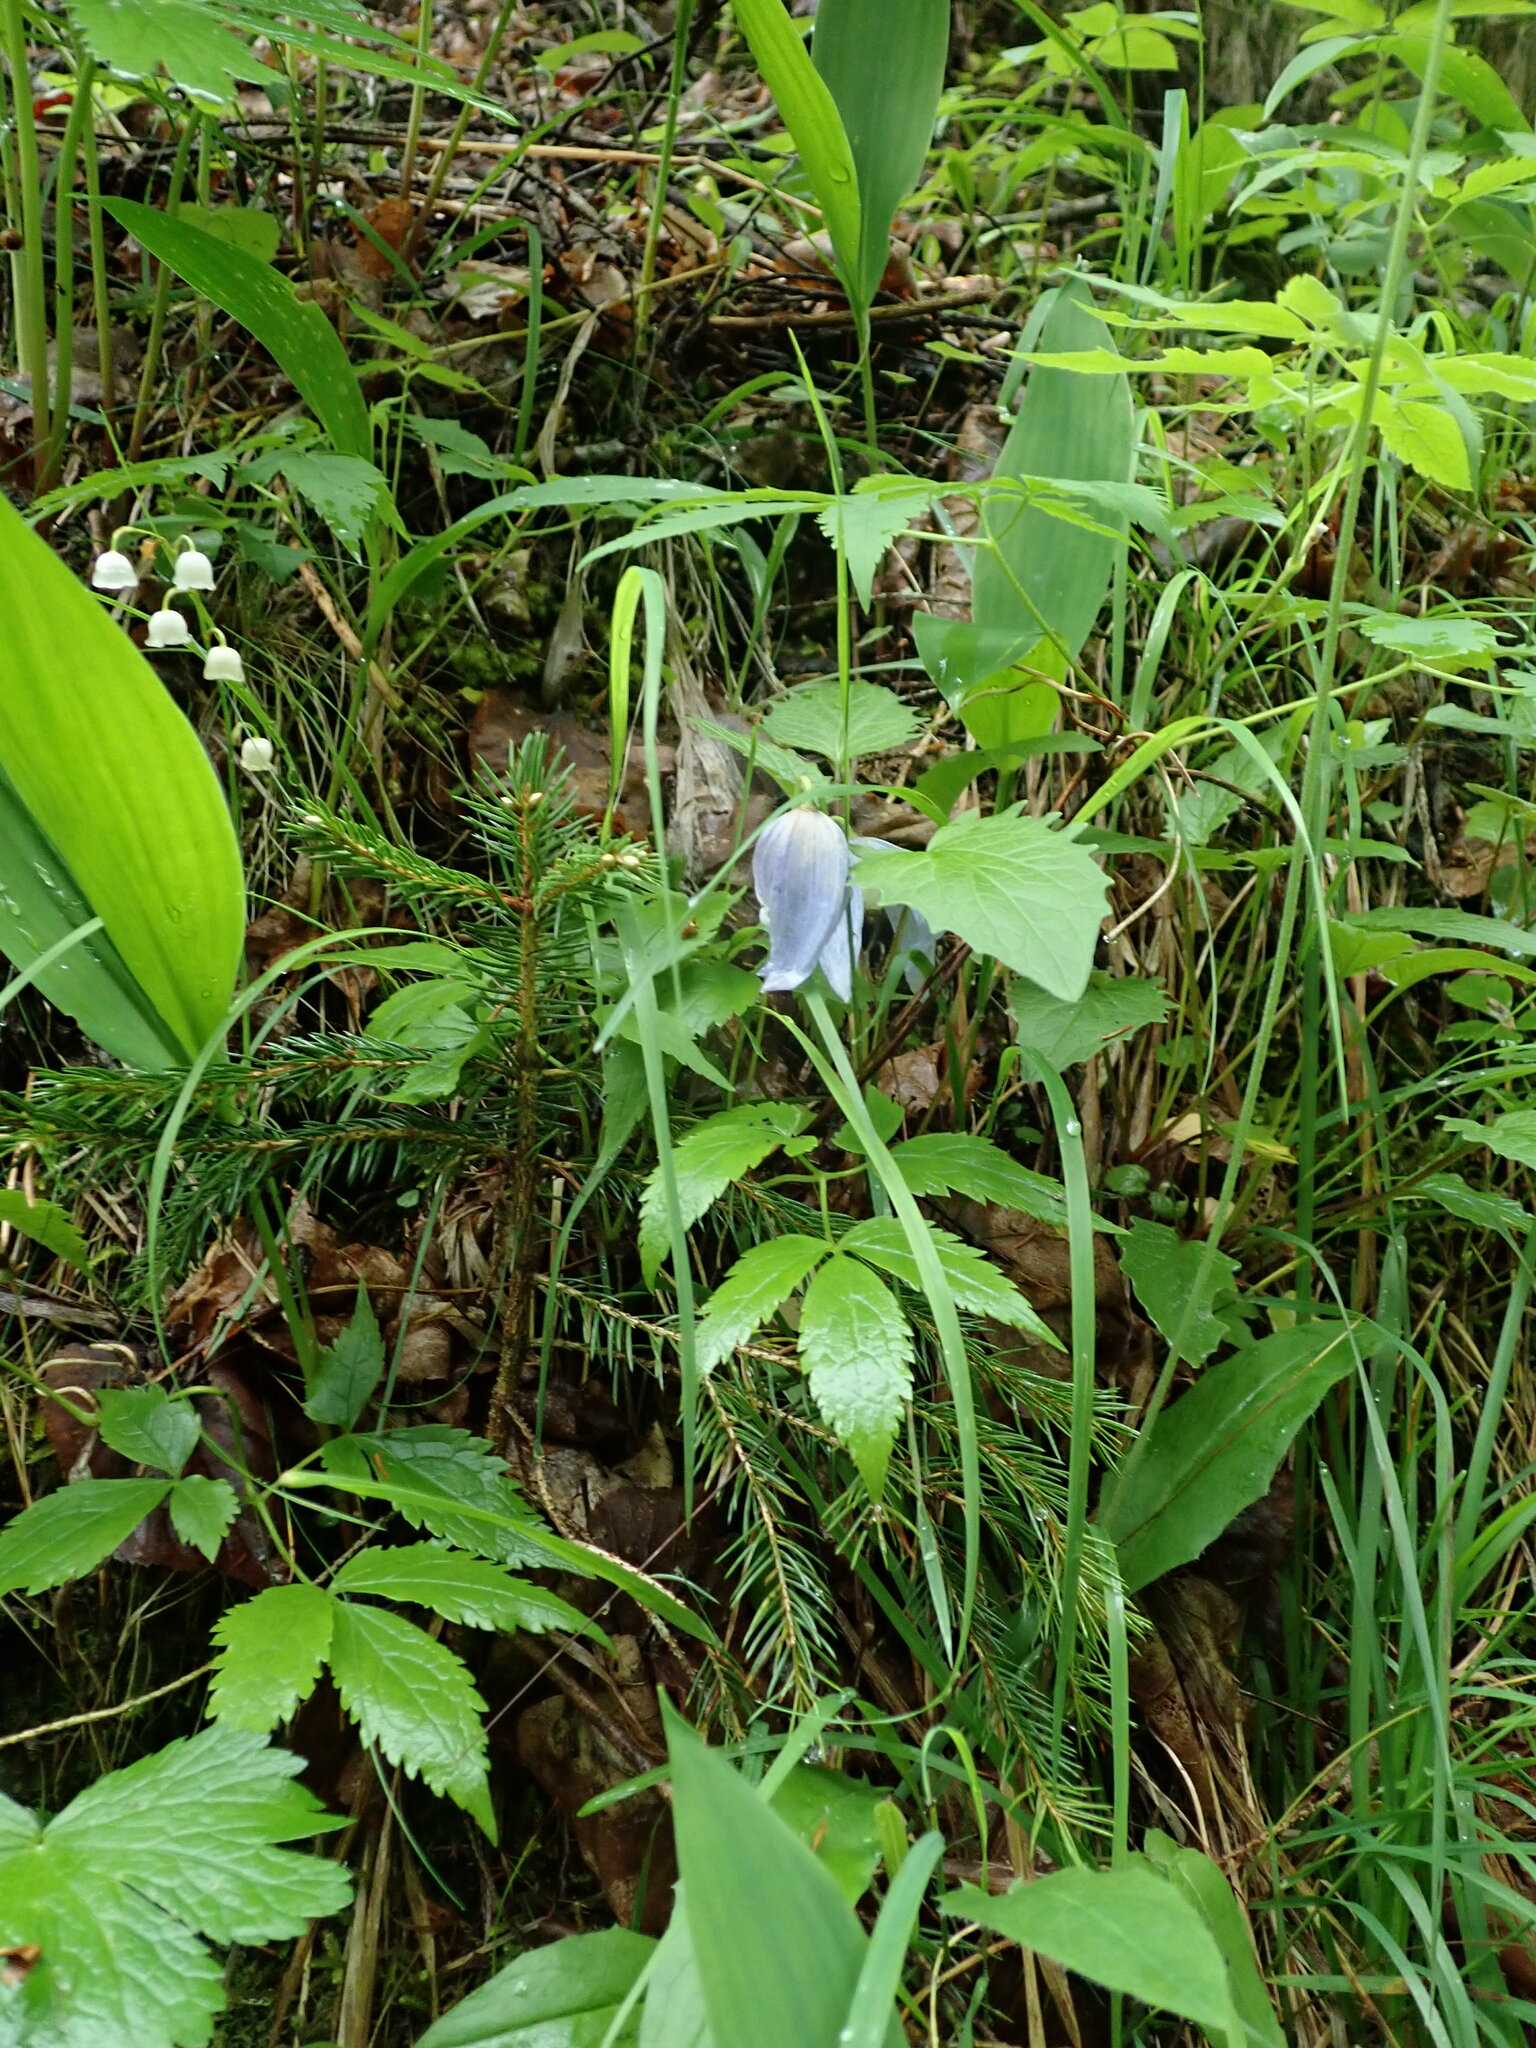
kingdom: Plantae
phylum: Tracheophyta
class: Magnoliopsida
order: Ranunculales
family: Ranunculaceae
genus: Clematis
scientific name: Clematis alpina
